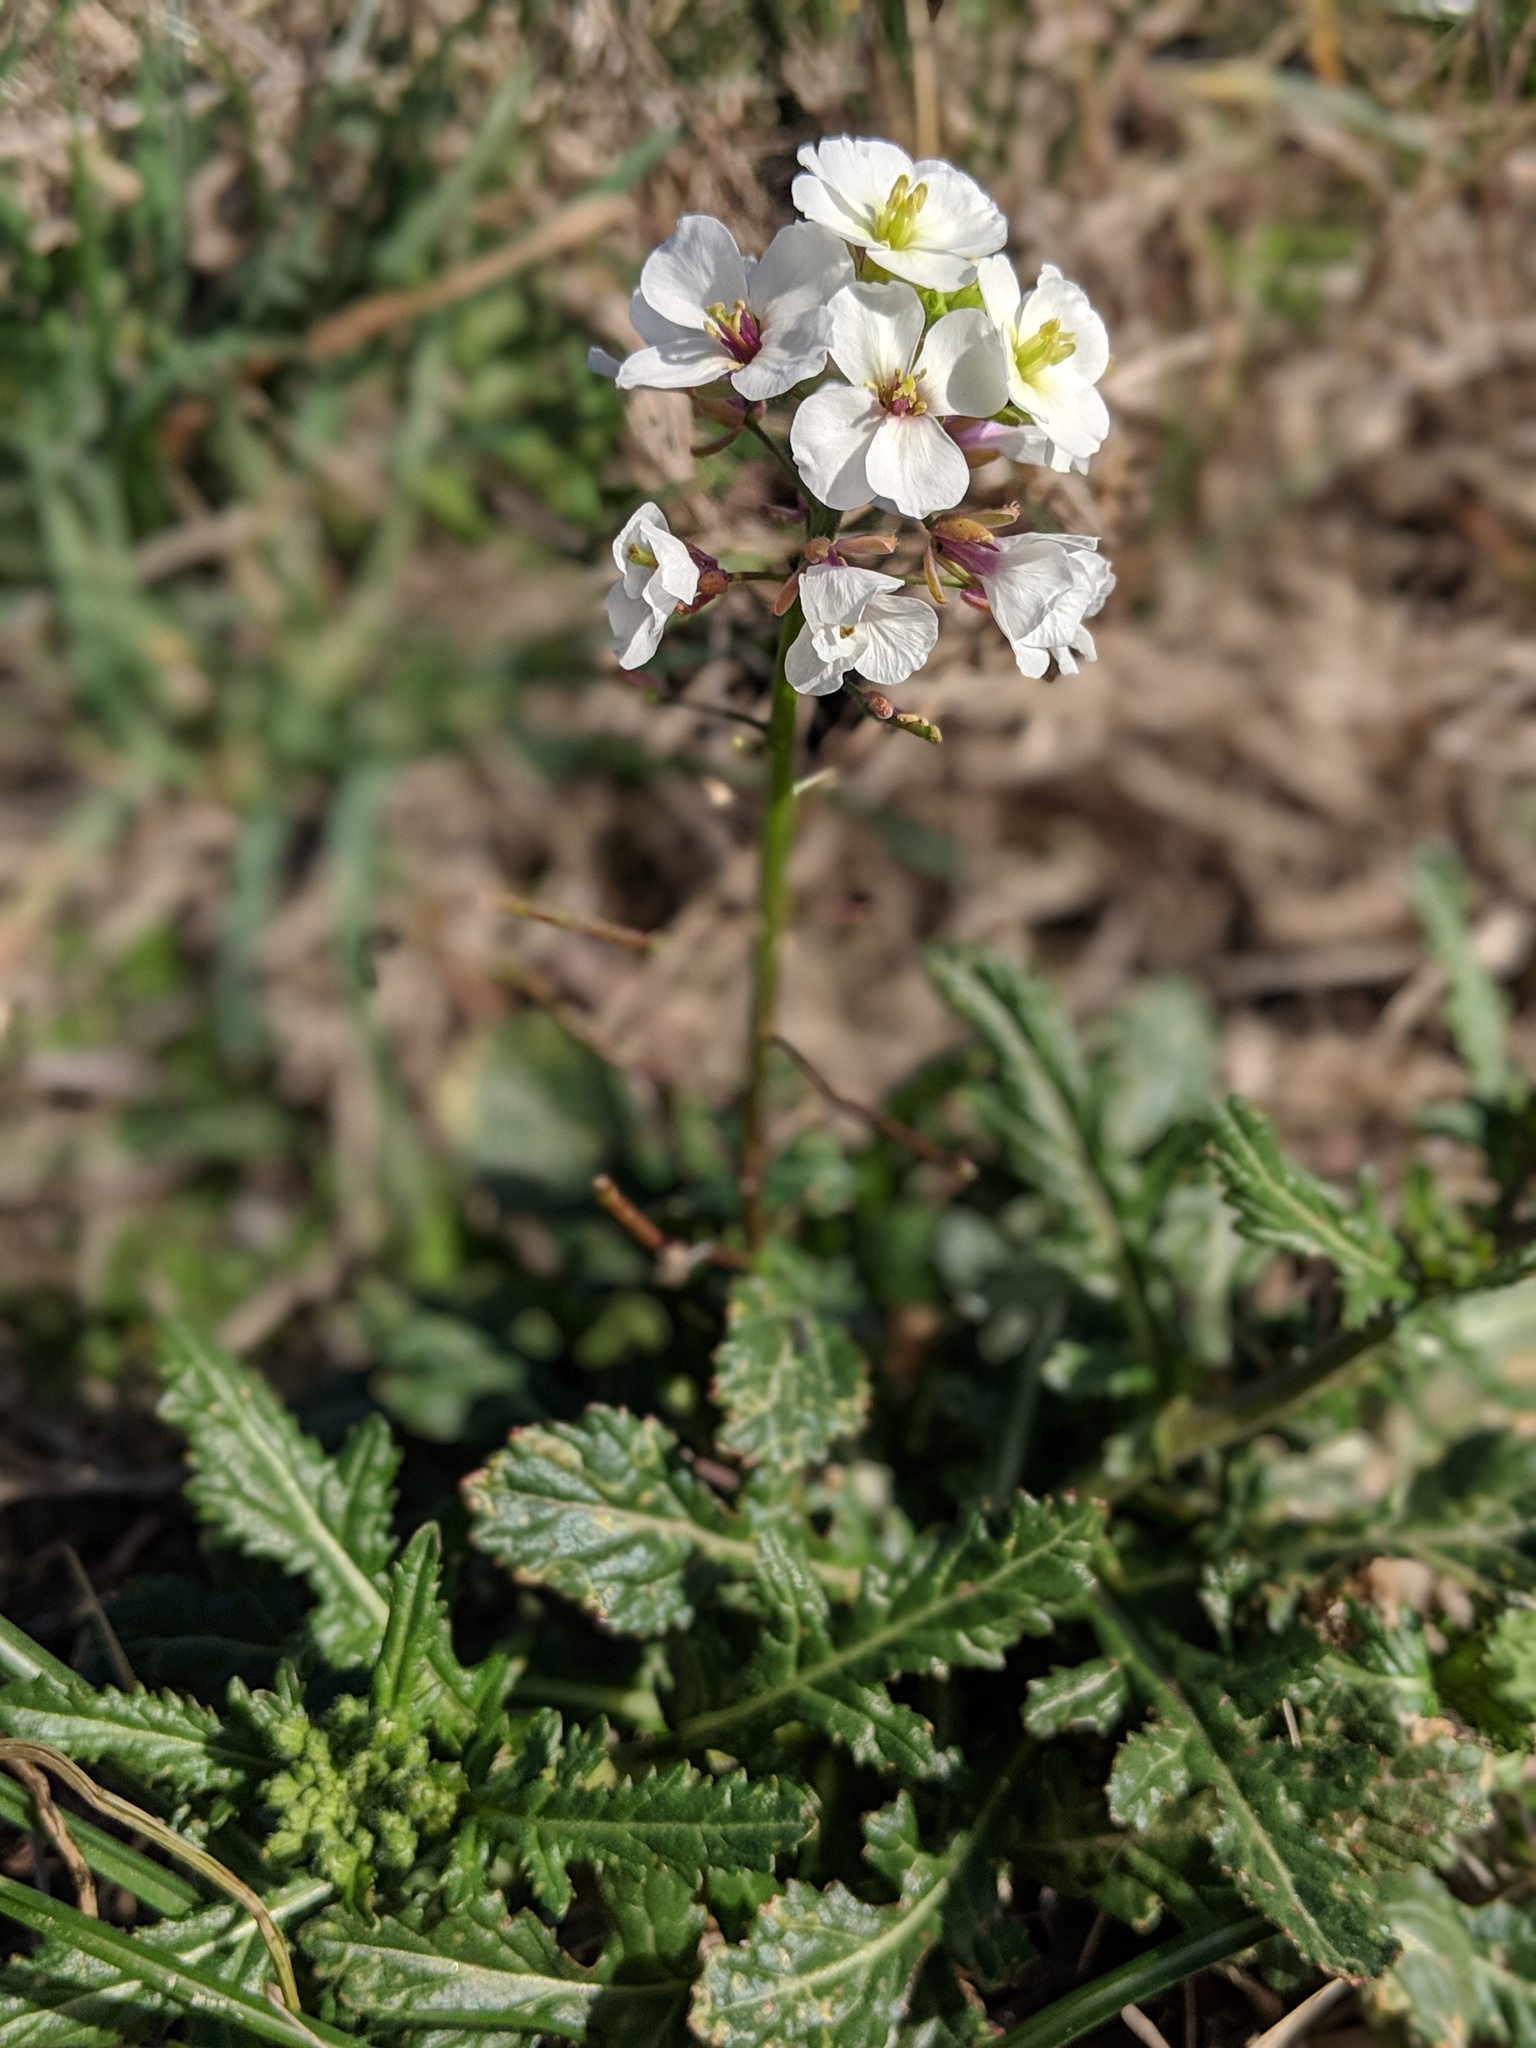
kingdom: Plantae
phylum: Tracheophyta
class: Magnoliopsida
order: Brassicales
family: Brassicaceae
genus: Diplotaxis
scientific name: Diplotaxis erucoides
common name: White rocket
